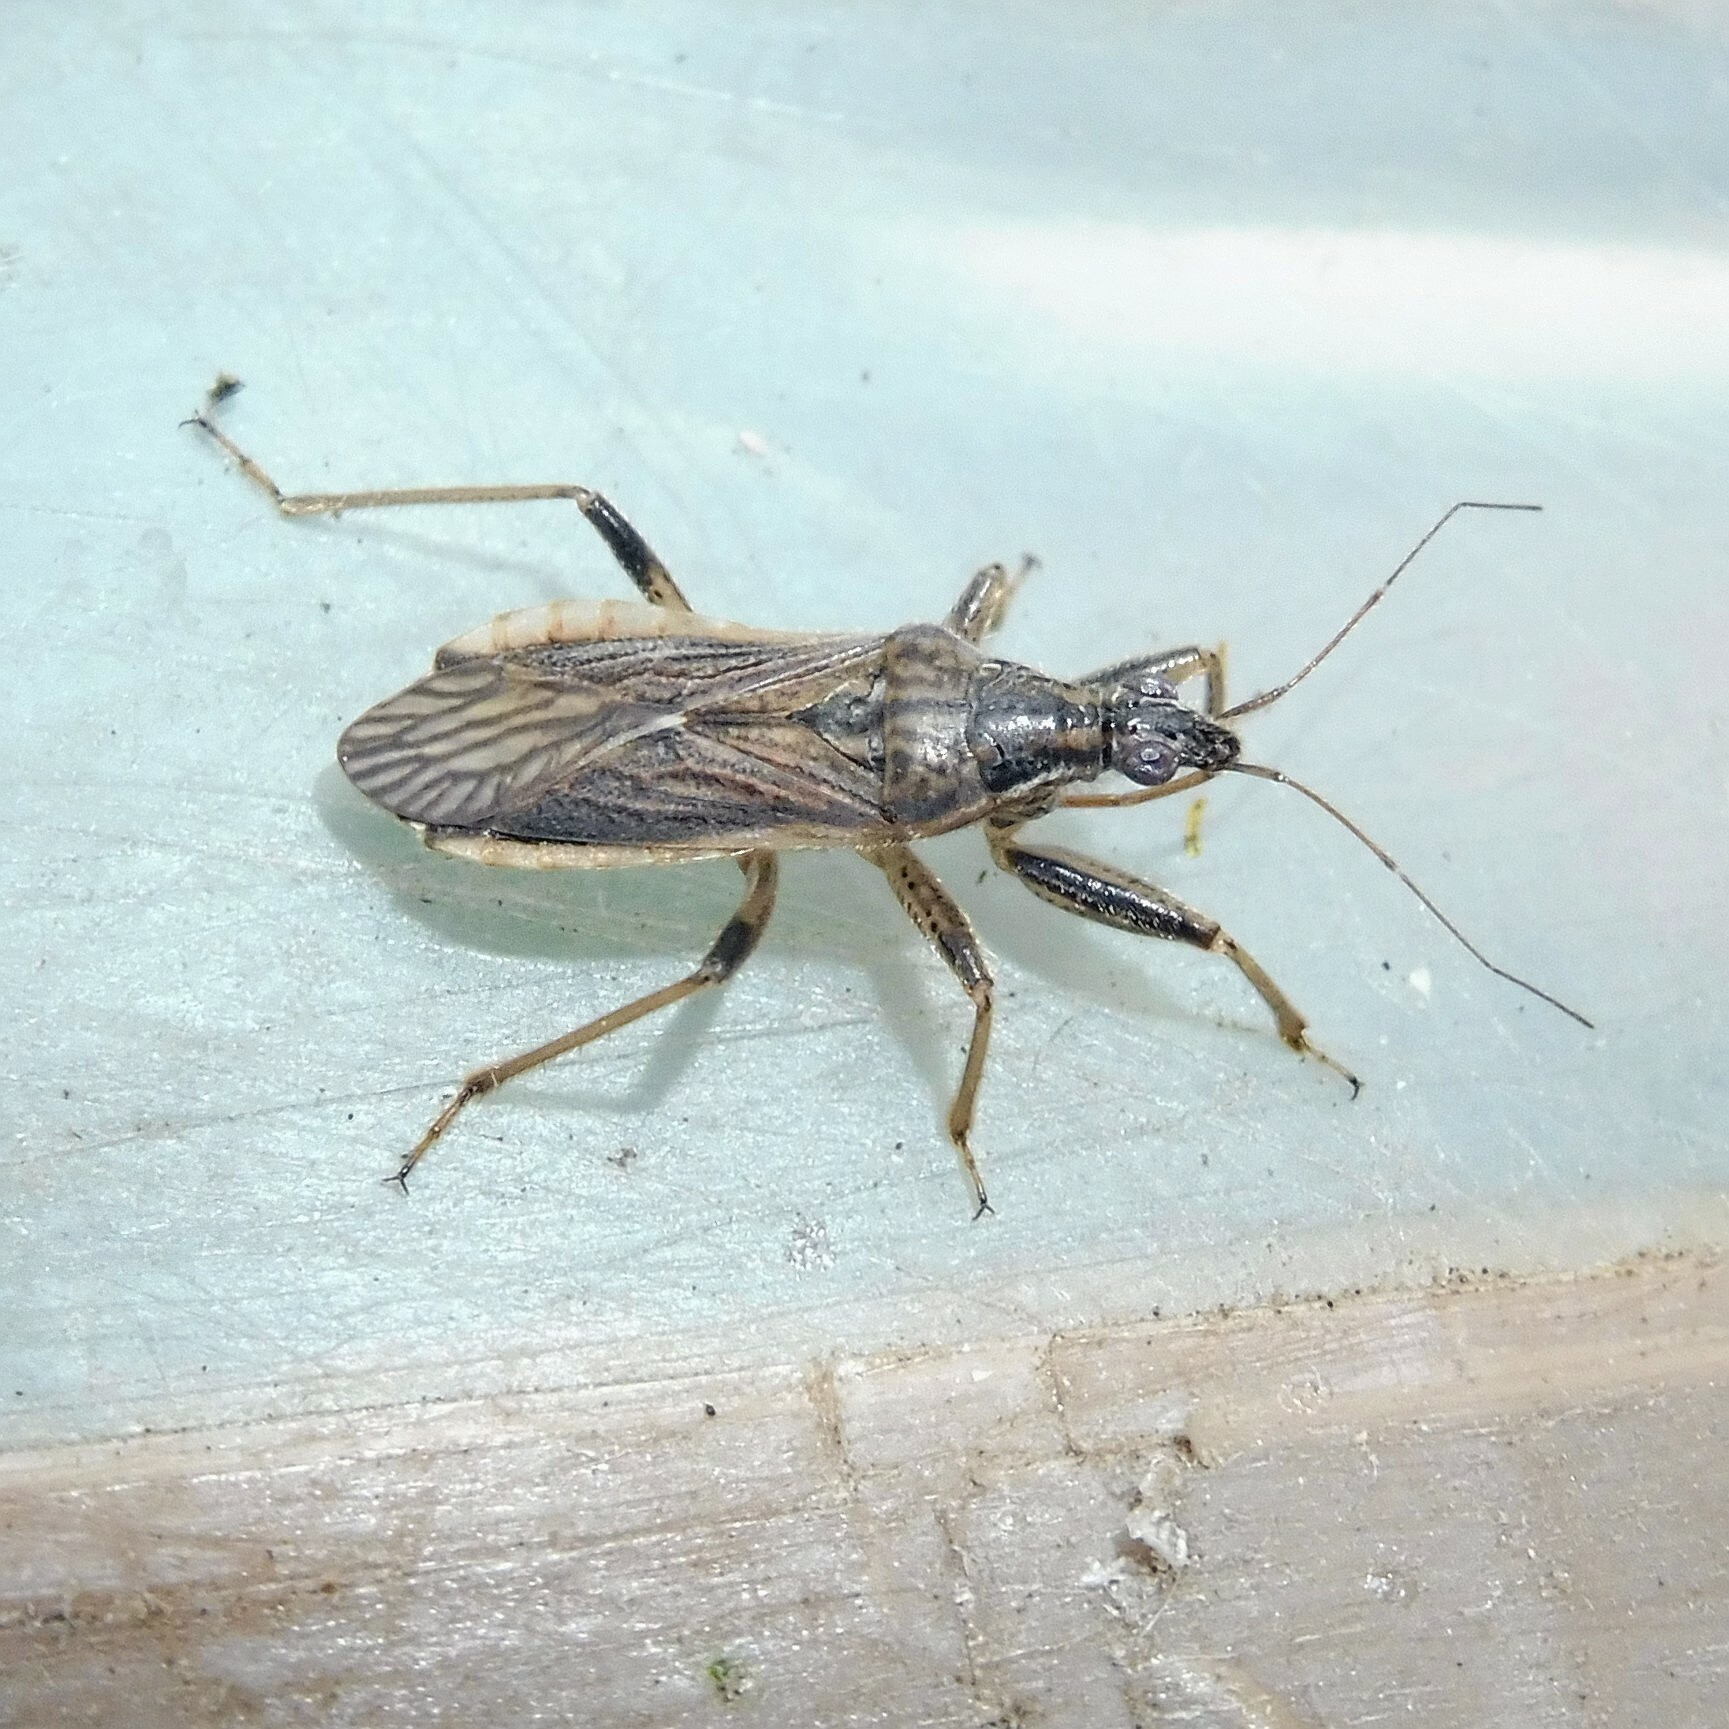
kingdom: Animalia
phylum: Arthropoda
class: Insecta
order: Hemiptera
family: Nabidae
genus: Himacerus
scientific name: Himacerus major
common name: Damsel bug
